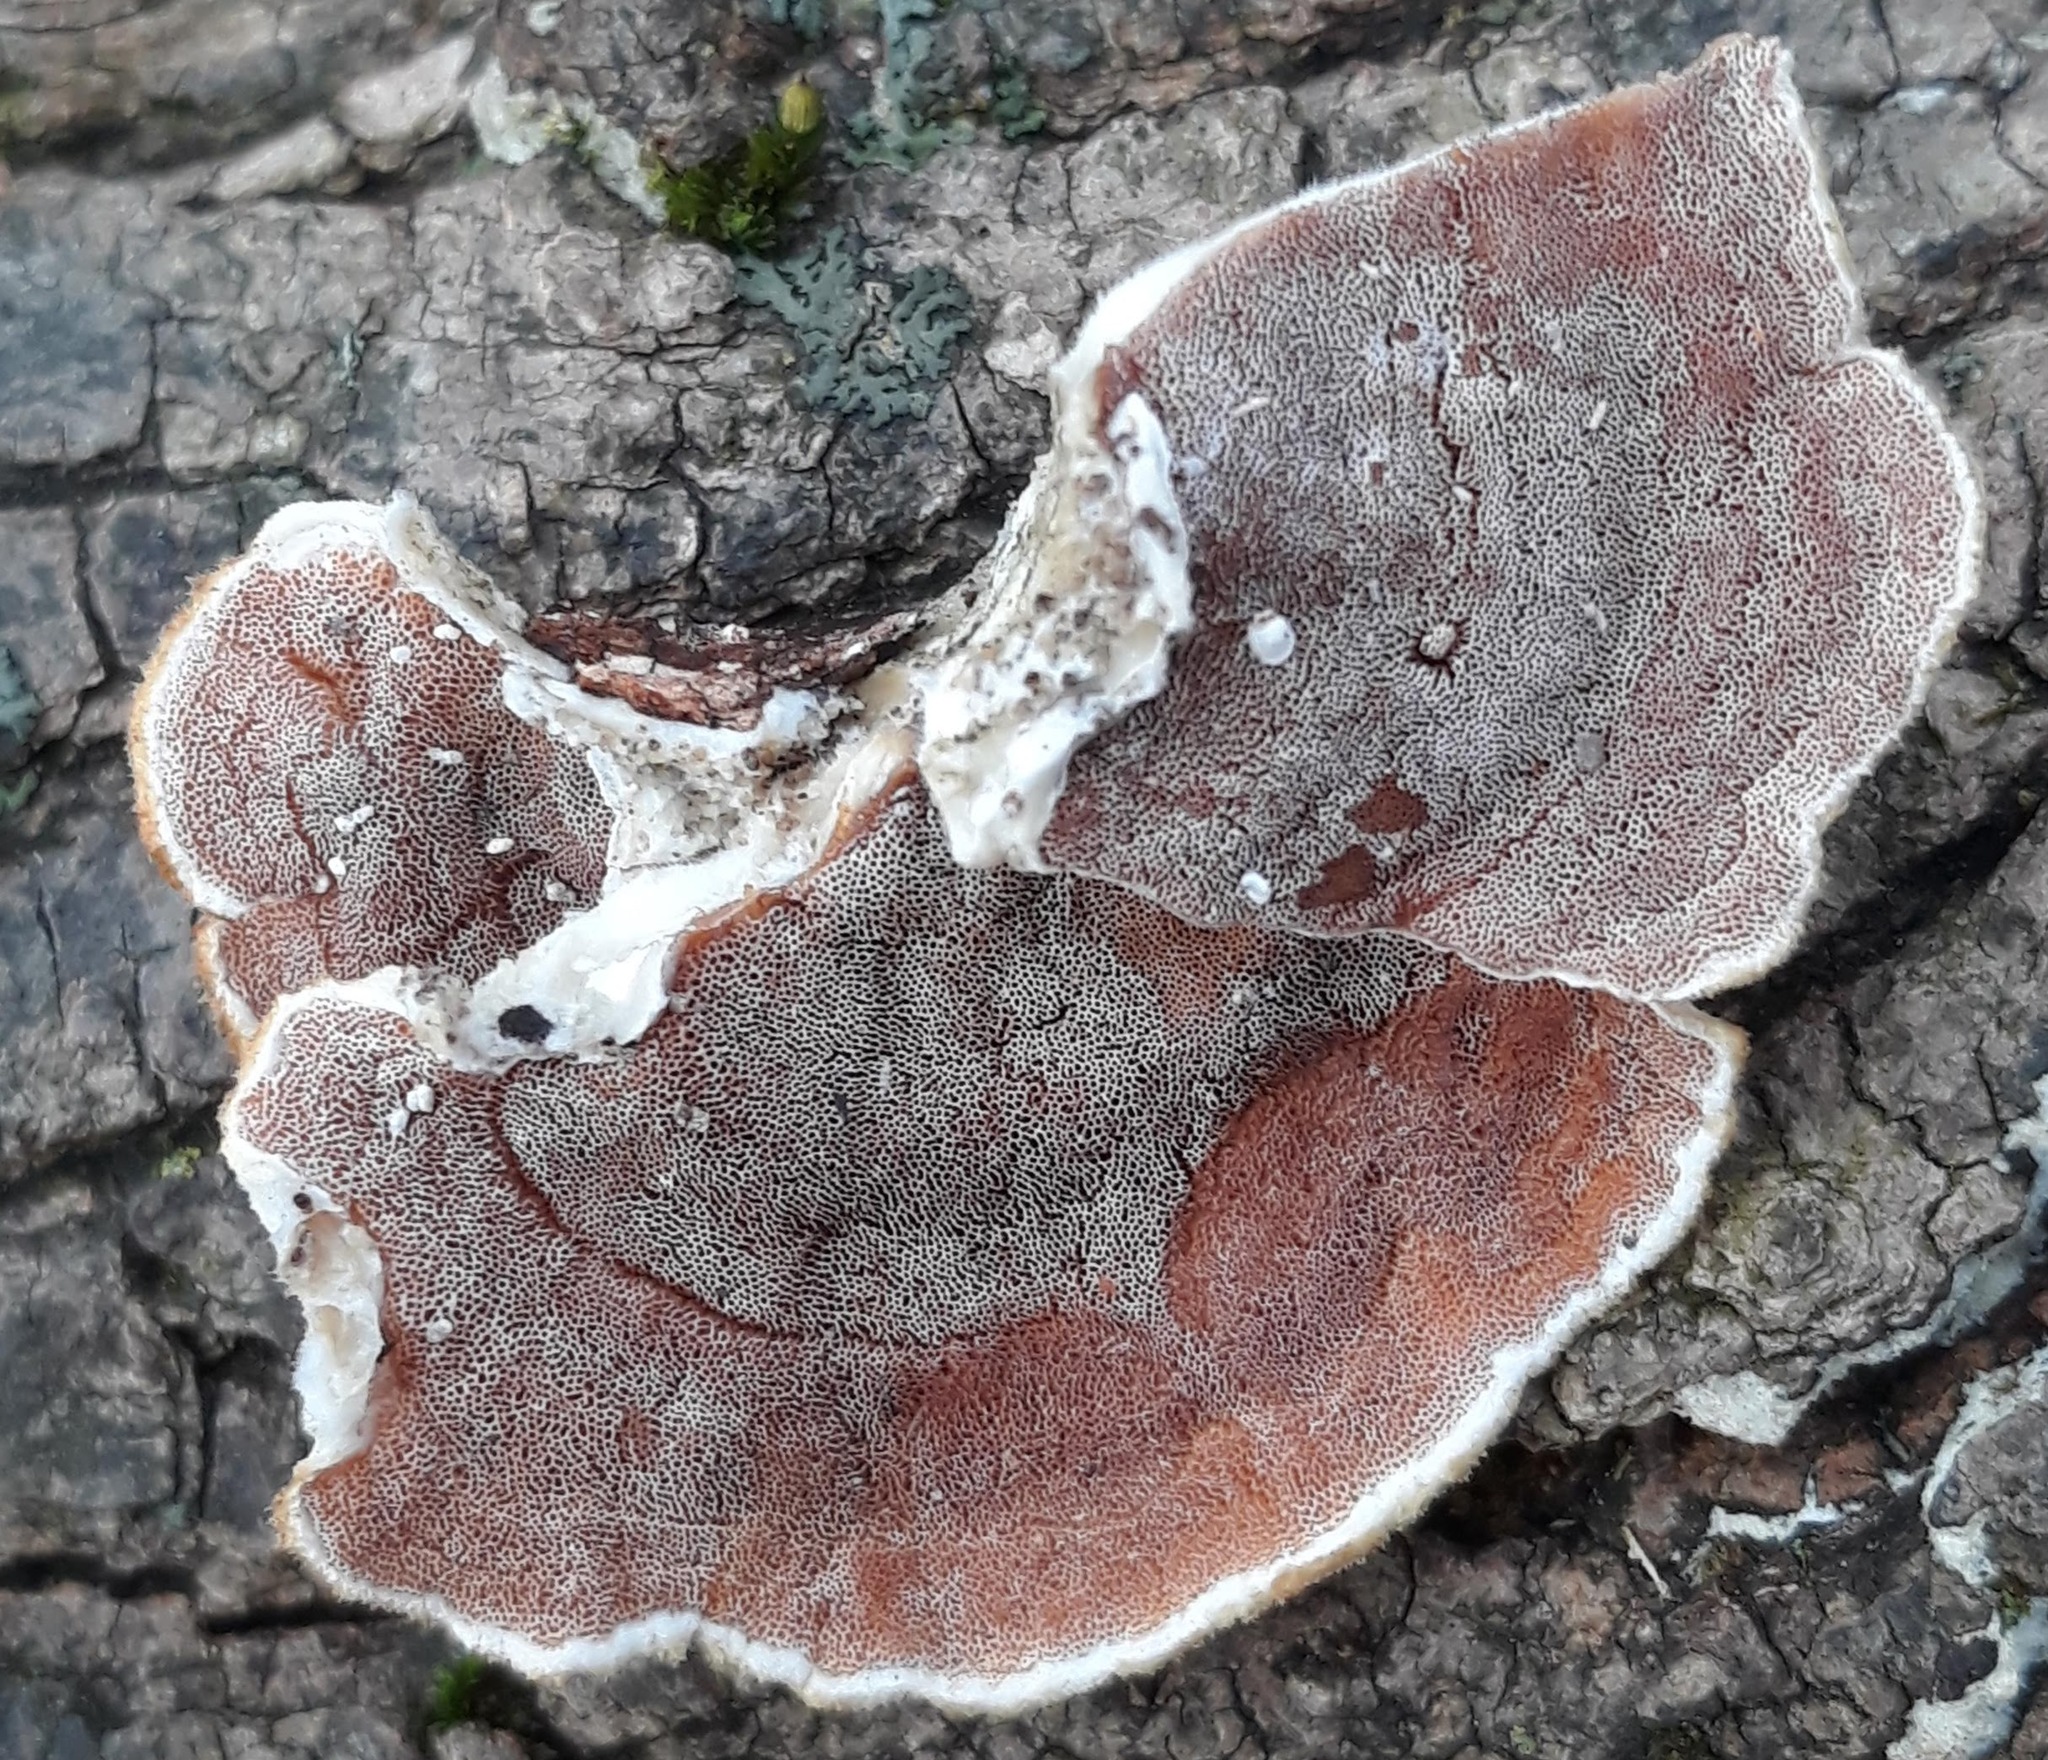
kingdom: Fungi
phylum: Basidiomycota
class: Agaricomycetes
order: Polyporales
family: Irpicaceae
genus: Vitreoporus
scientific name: Vitreoporus dichrous
